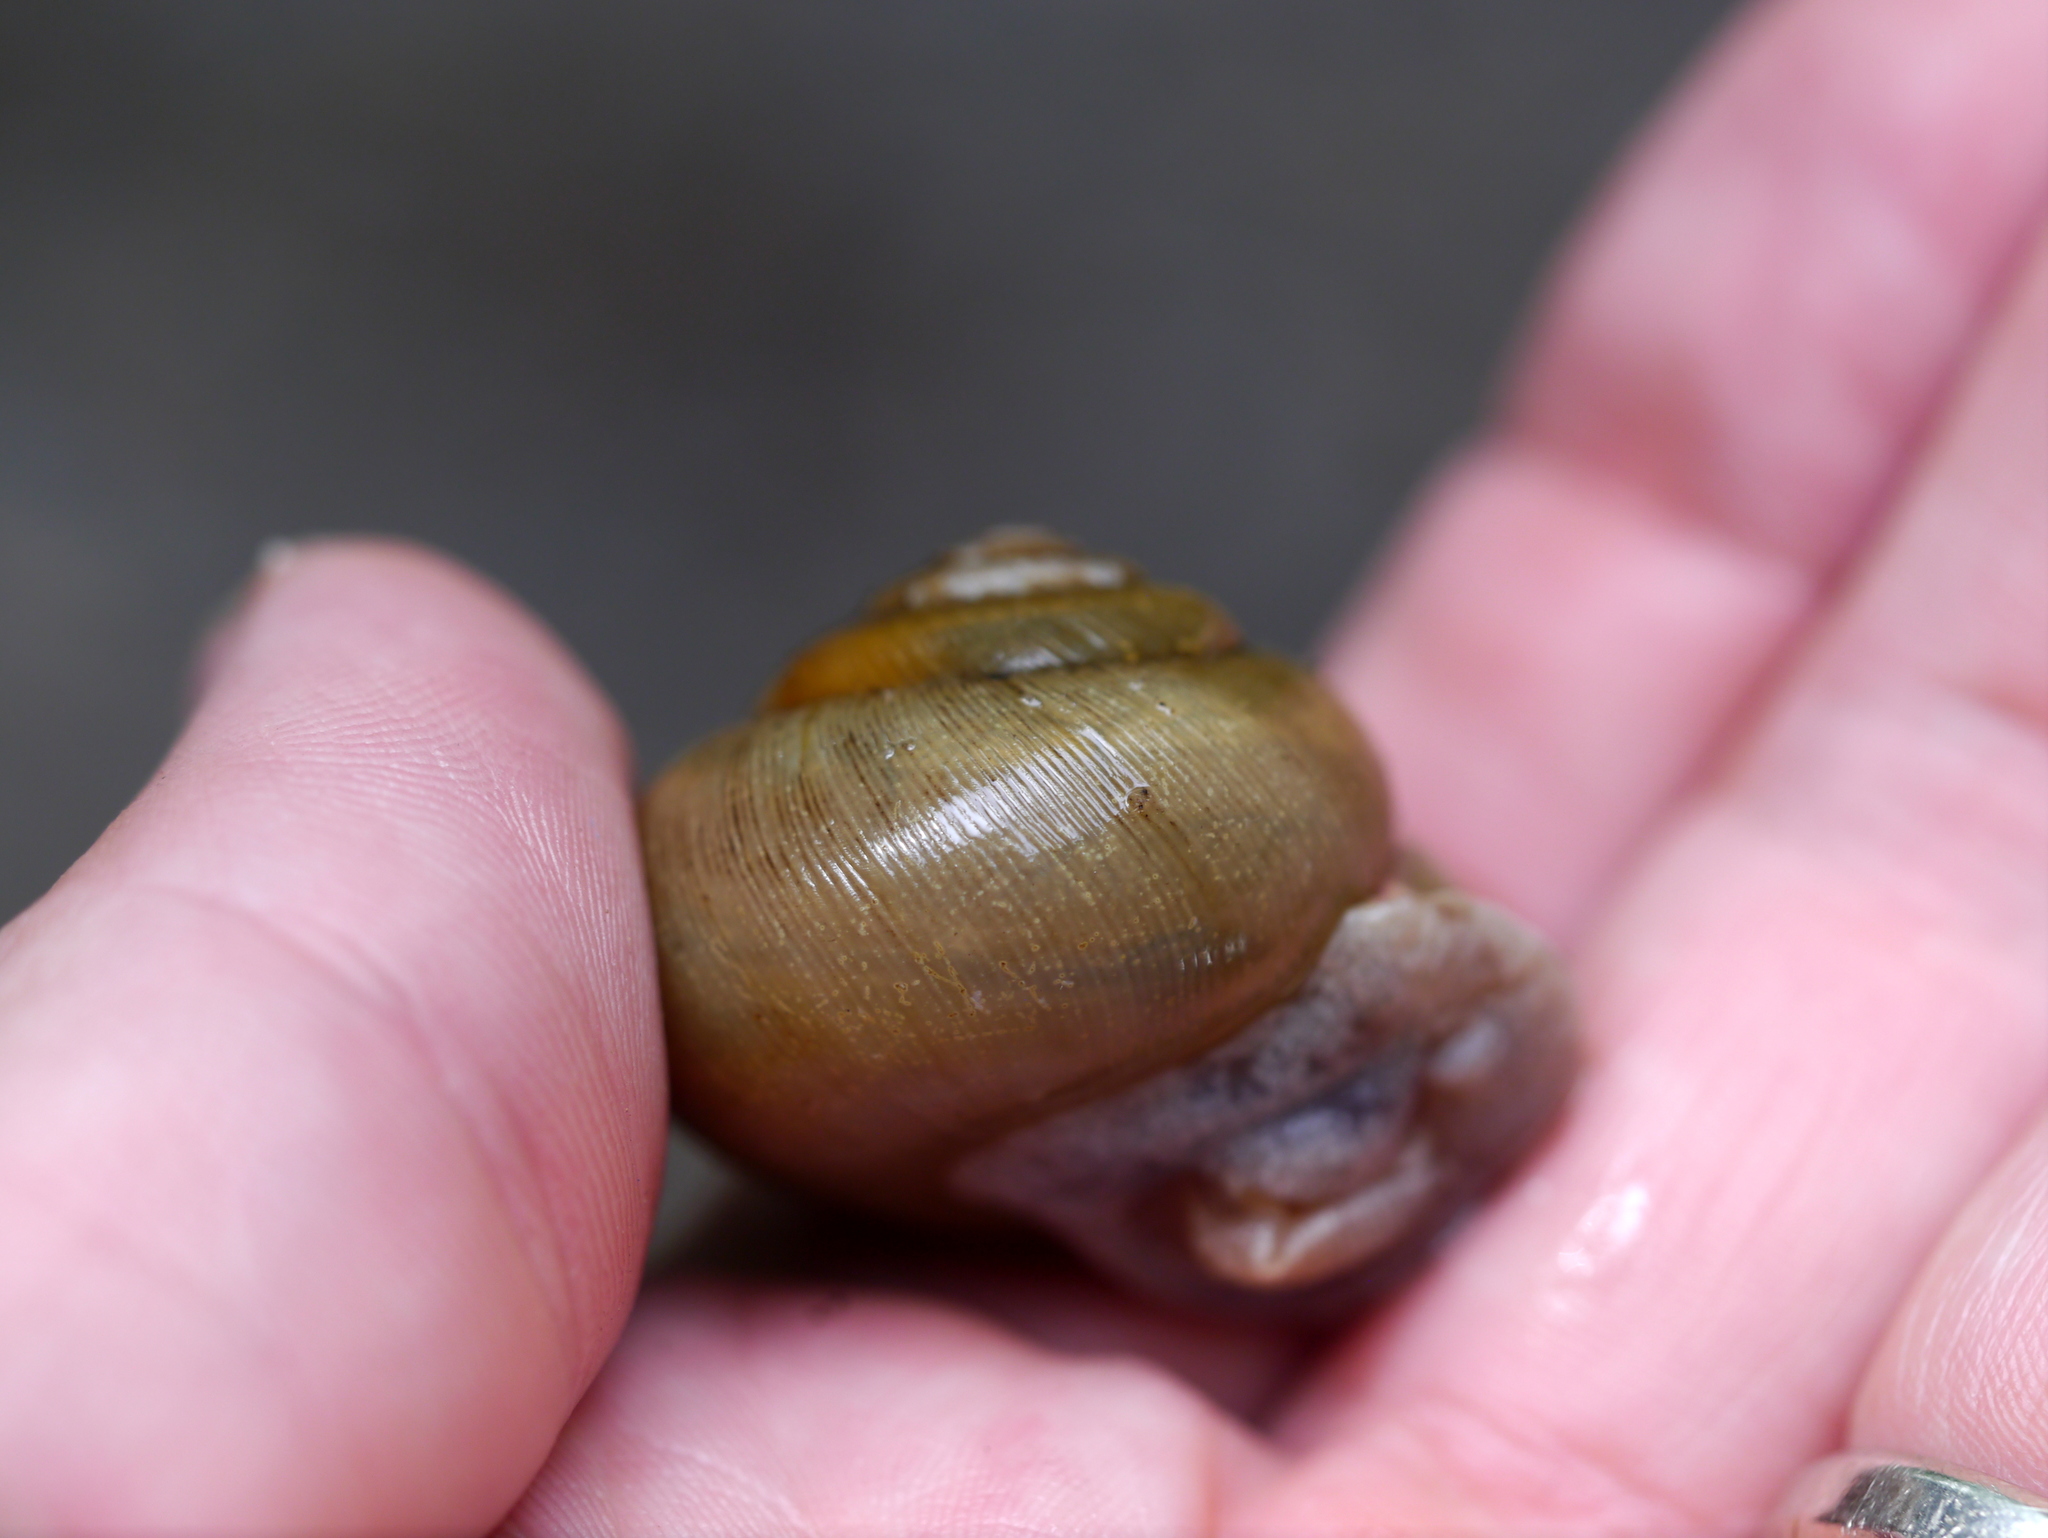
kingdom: Animalia
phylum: Mollusca
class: Gastropoda
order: Stylommatophora
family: Polygyridae
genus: Neohelix
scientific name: Neohelix albolabris
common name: Eastern whitelip
